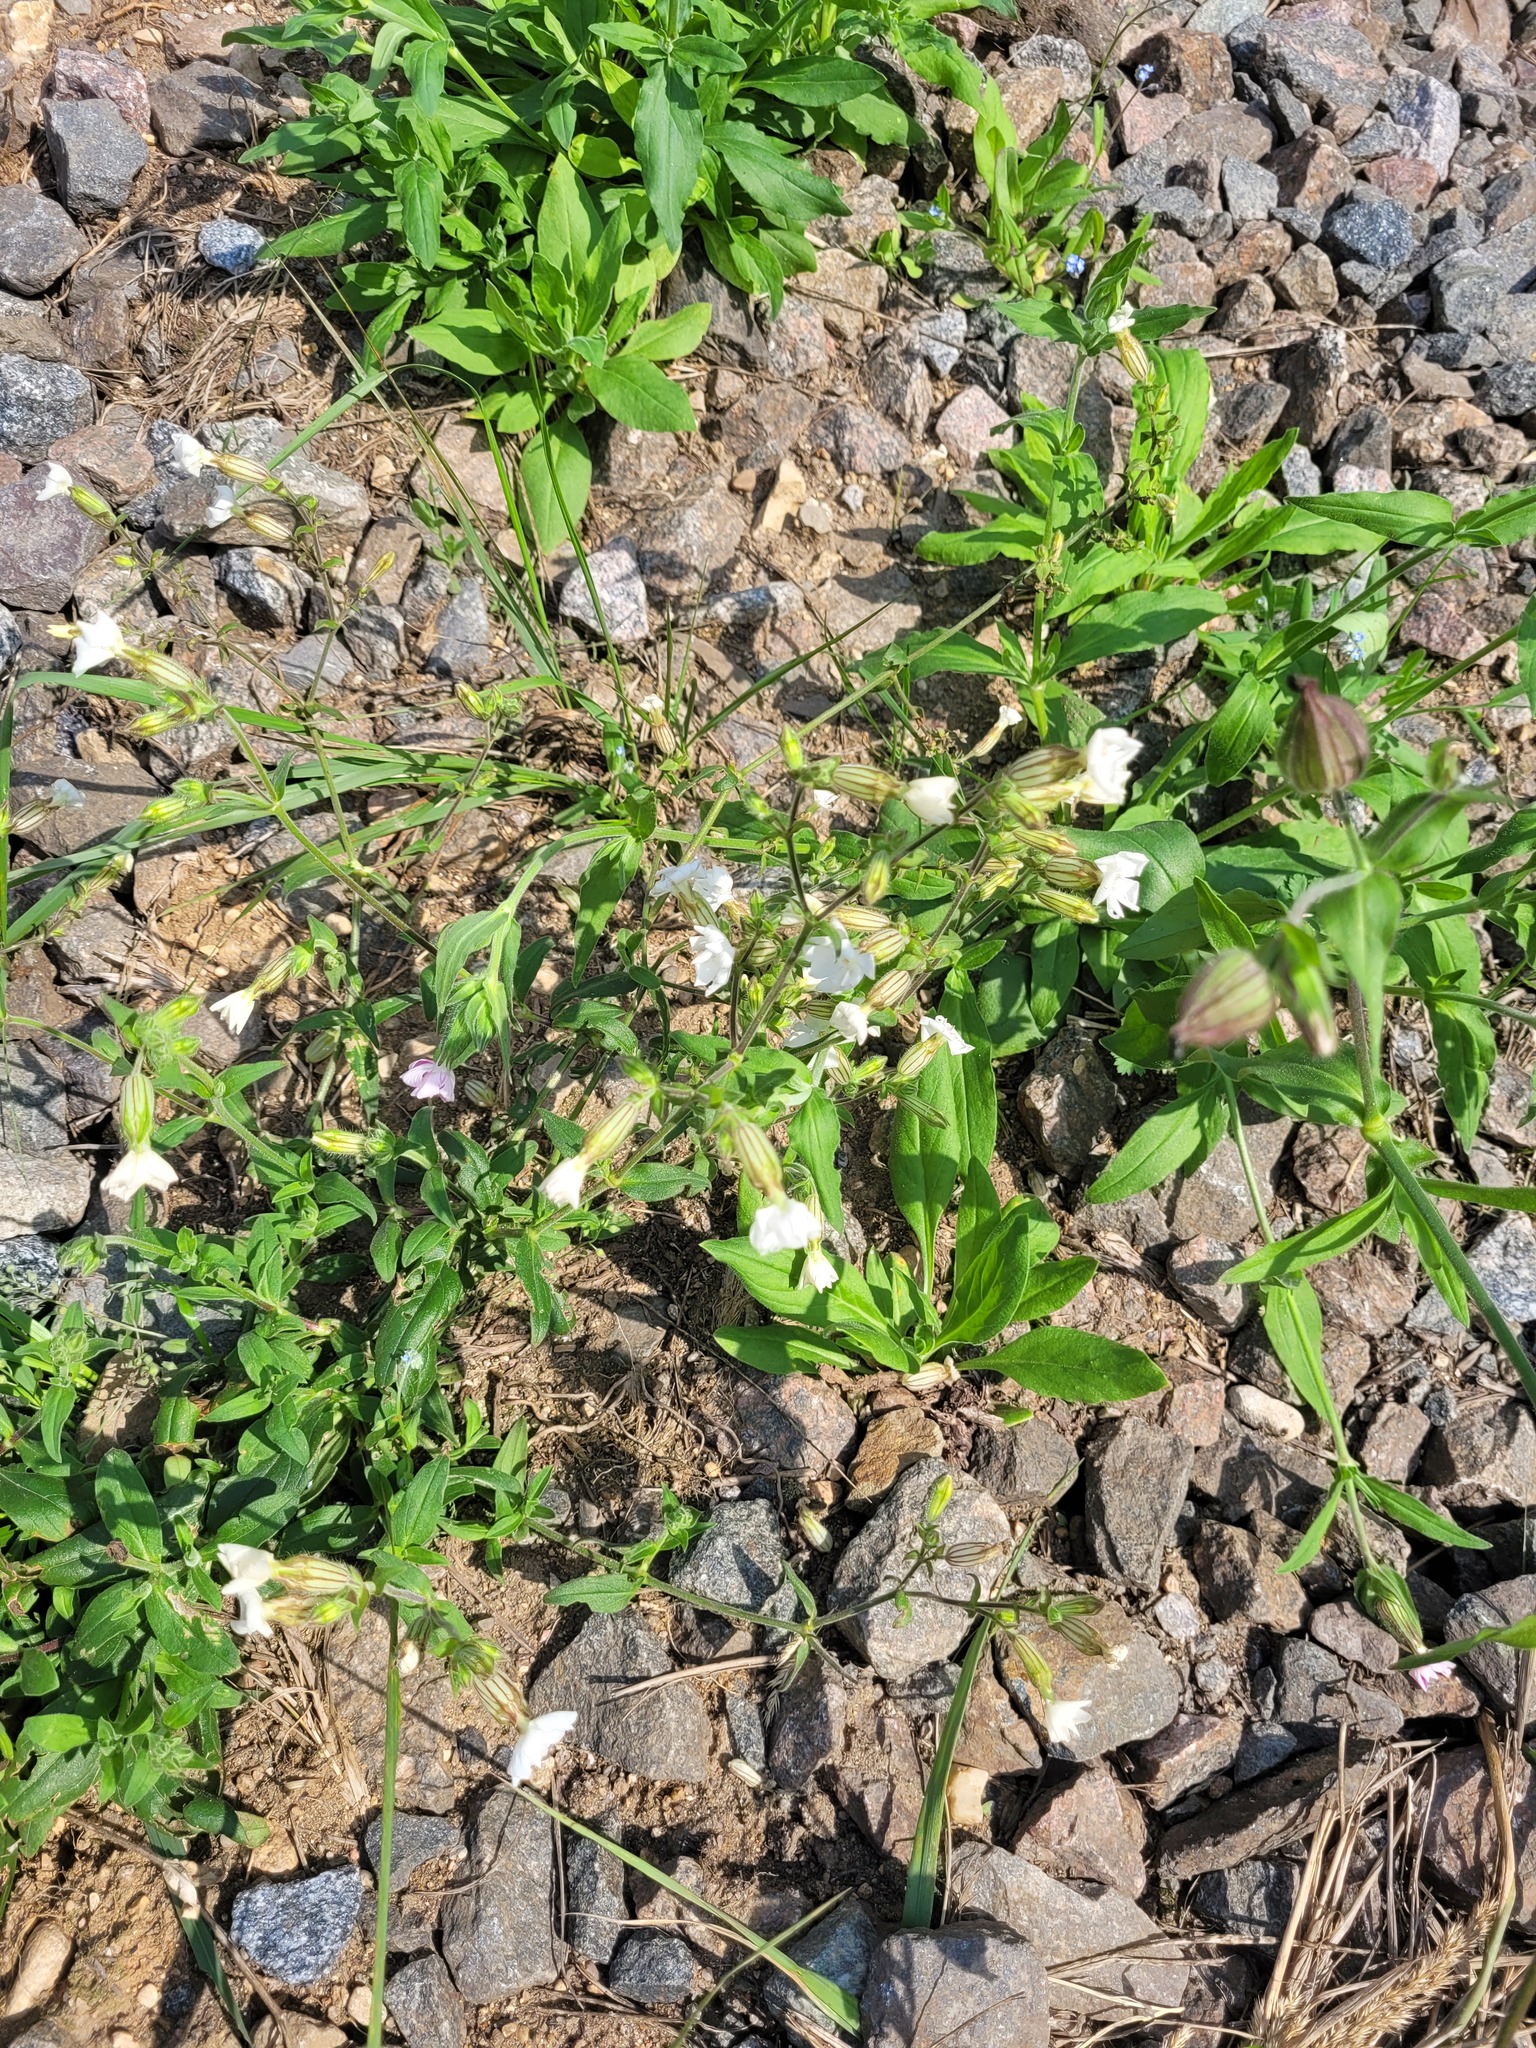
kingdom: Plantae
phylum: Tracheophyta
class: Magnoliopsida
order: Caryophyllales
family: Caryophyllaceae
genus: Silene
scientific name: Silene latifolia
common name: White campion
